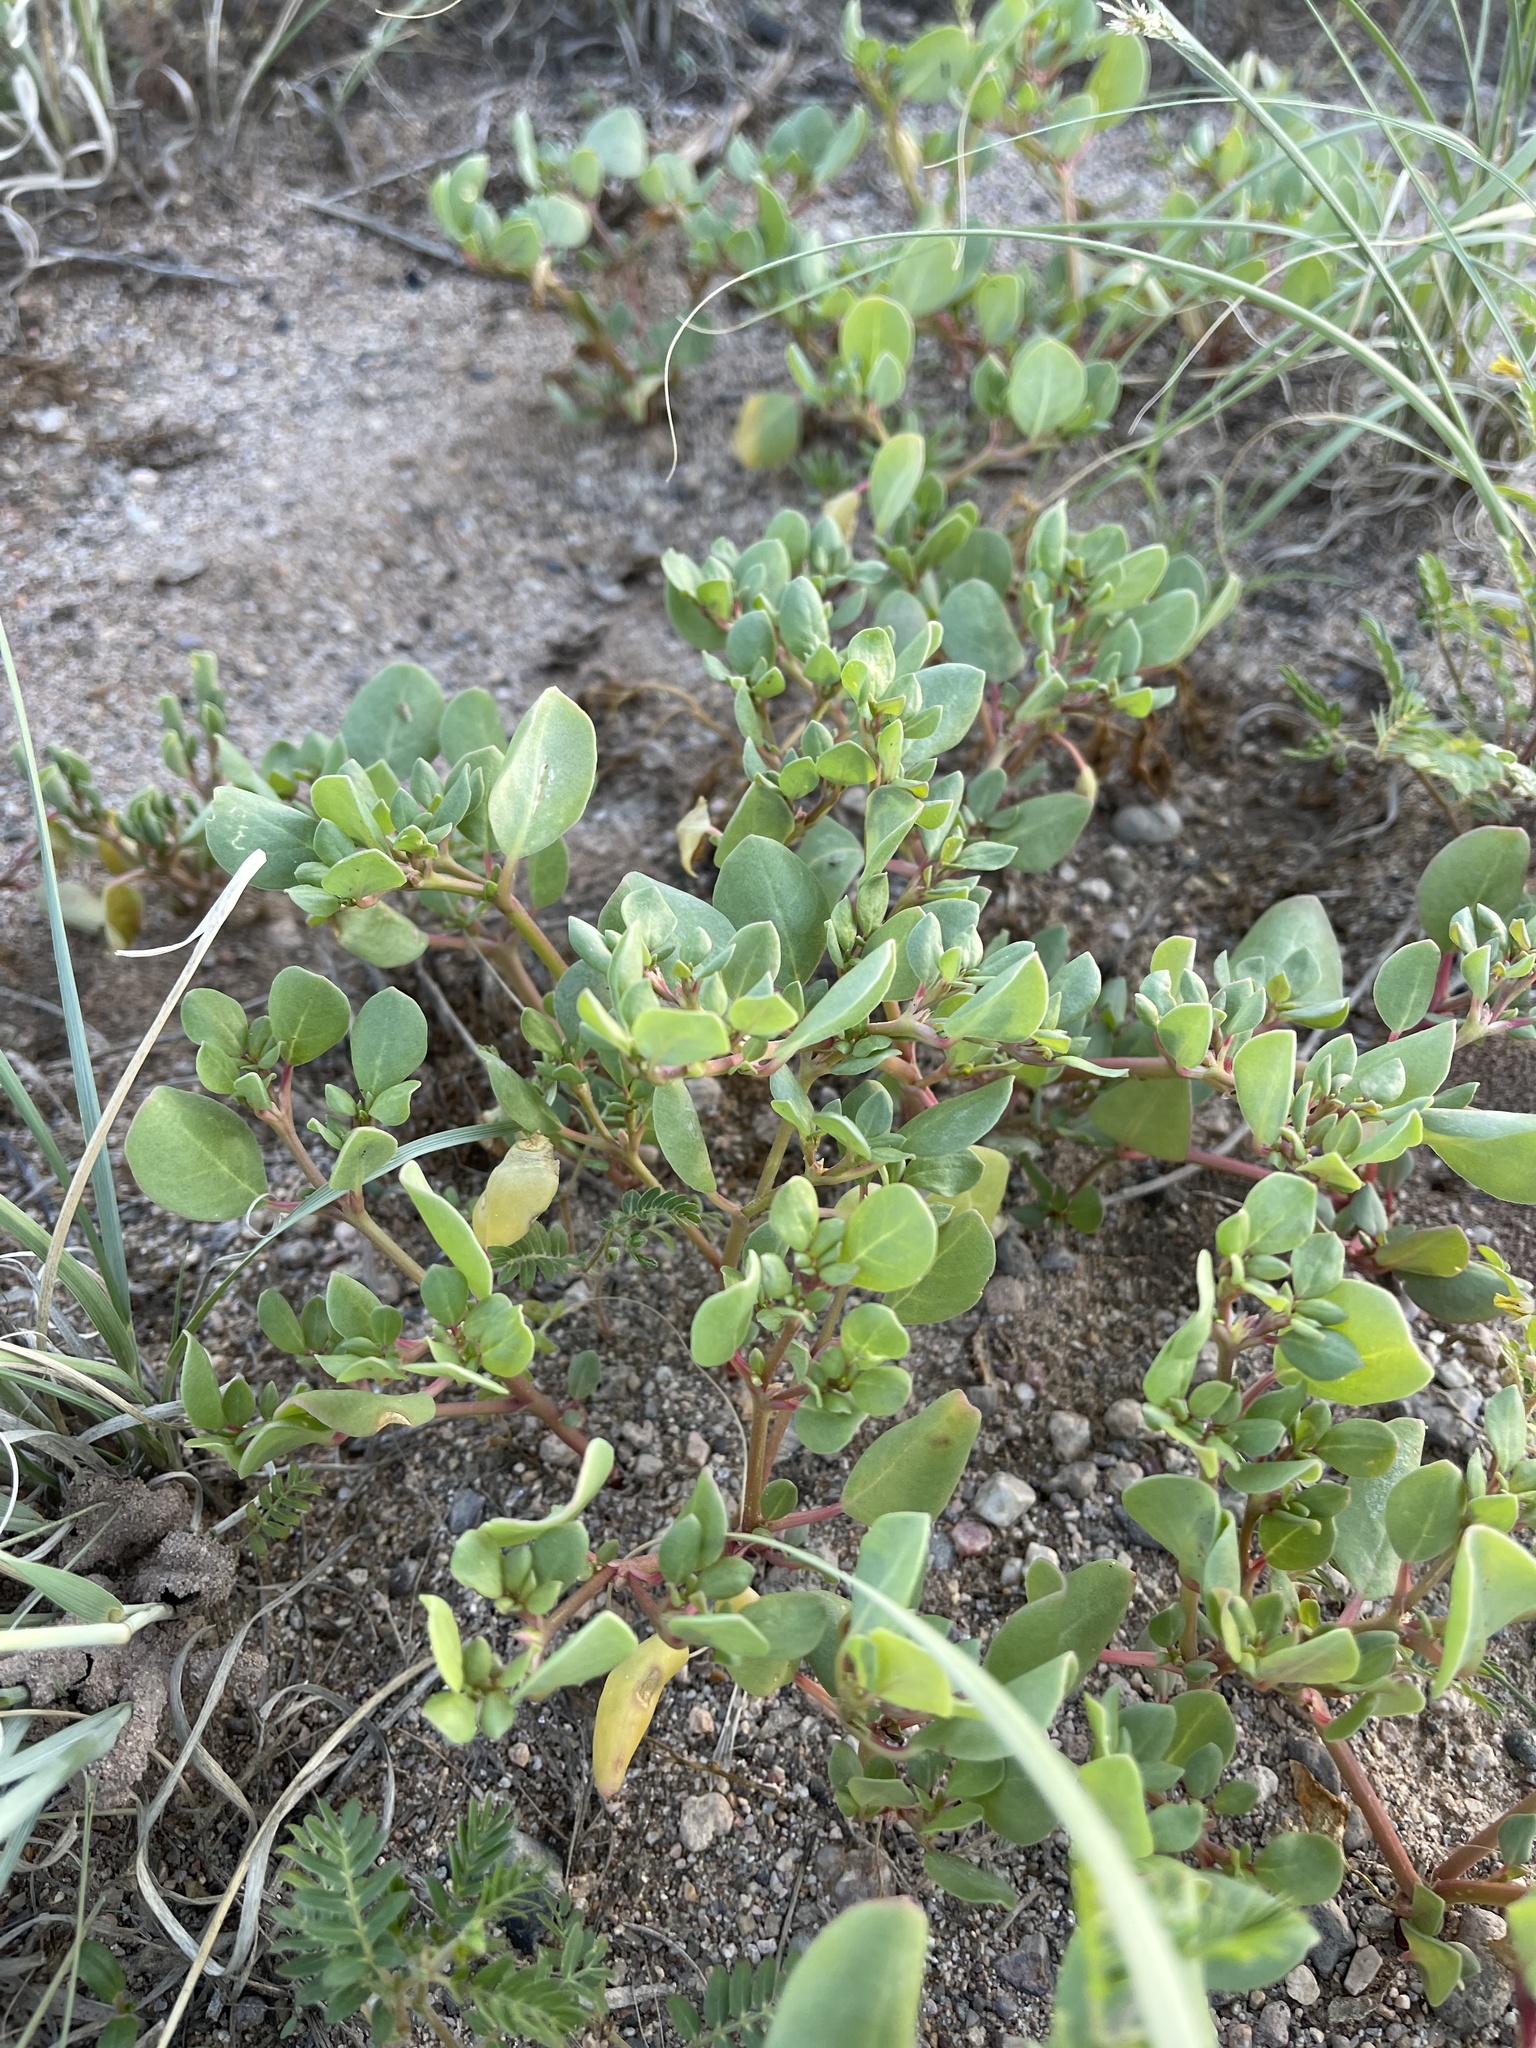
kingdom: Plantae
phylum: Tracheophyta
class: Magnoliopsida
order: Caryophyllales
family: Aizoaceae
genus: Trianthema
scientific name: Trianthema portulacastrum
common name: Desert horsepurslane
